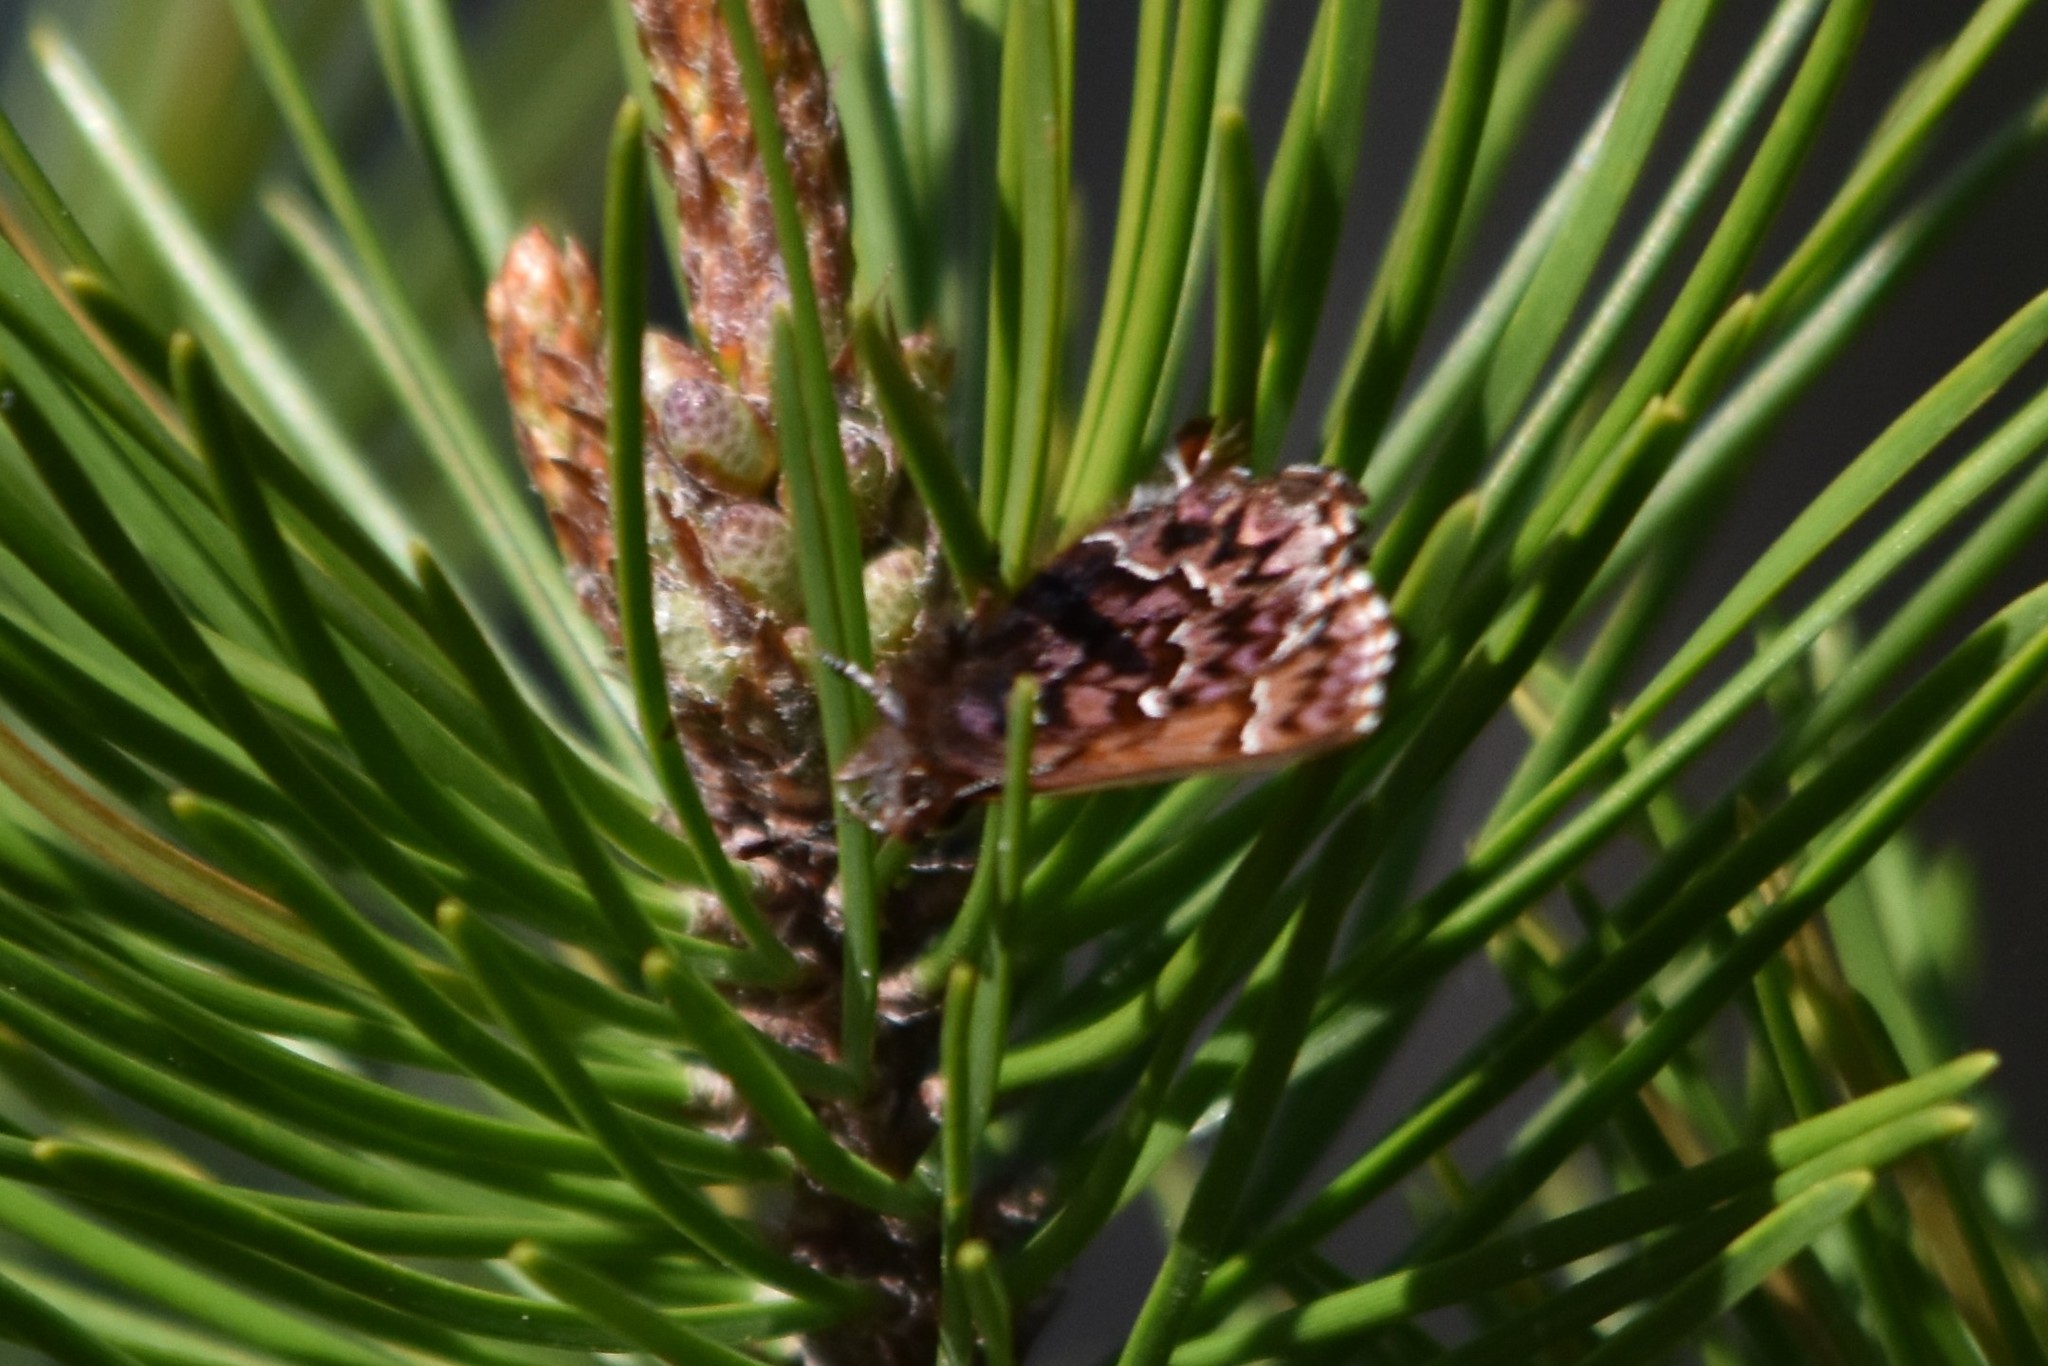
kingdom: Animalia
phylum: Arthropoda
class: Insecta
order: Lepidoptera
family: Lycaenidae
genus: Incisalia
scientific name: Incisalia eryphon
